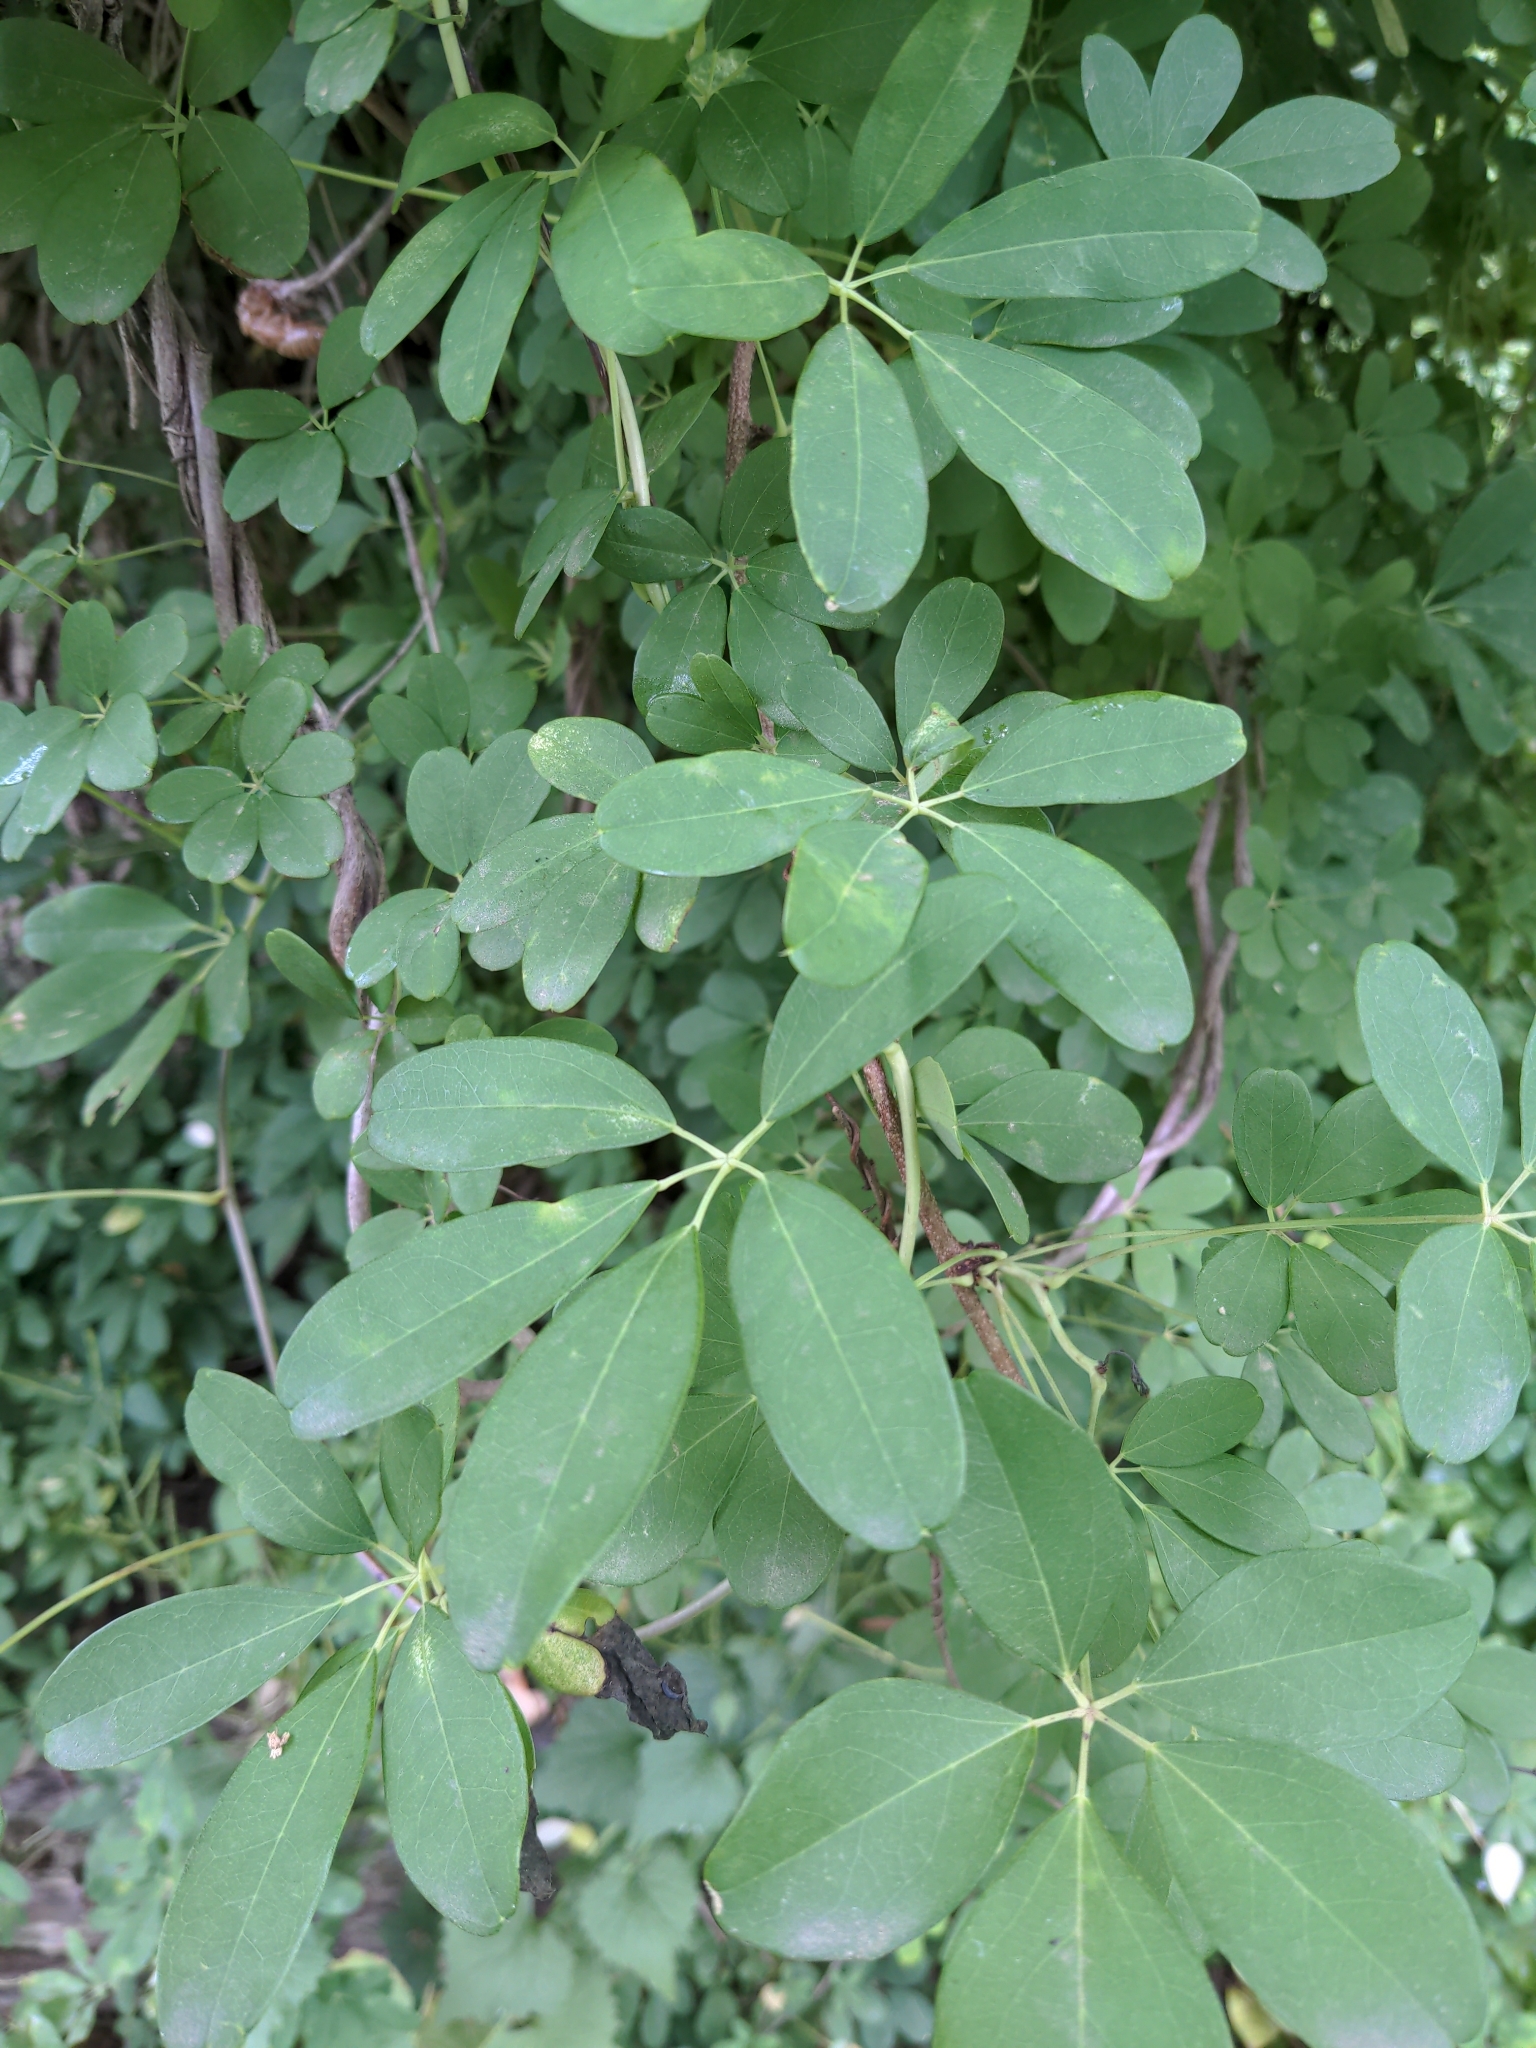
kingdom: Plantae
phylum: Tracheophyta
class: Magnoliopsida
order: Ranunculales
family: Lardizabalaceae
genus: Akebia
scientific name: Akebia quinata
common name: Five-leaf akebia
